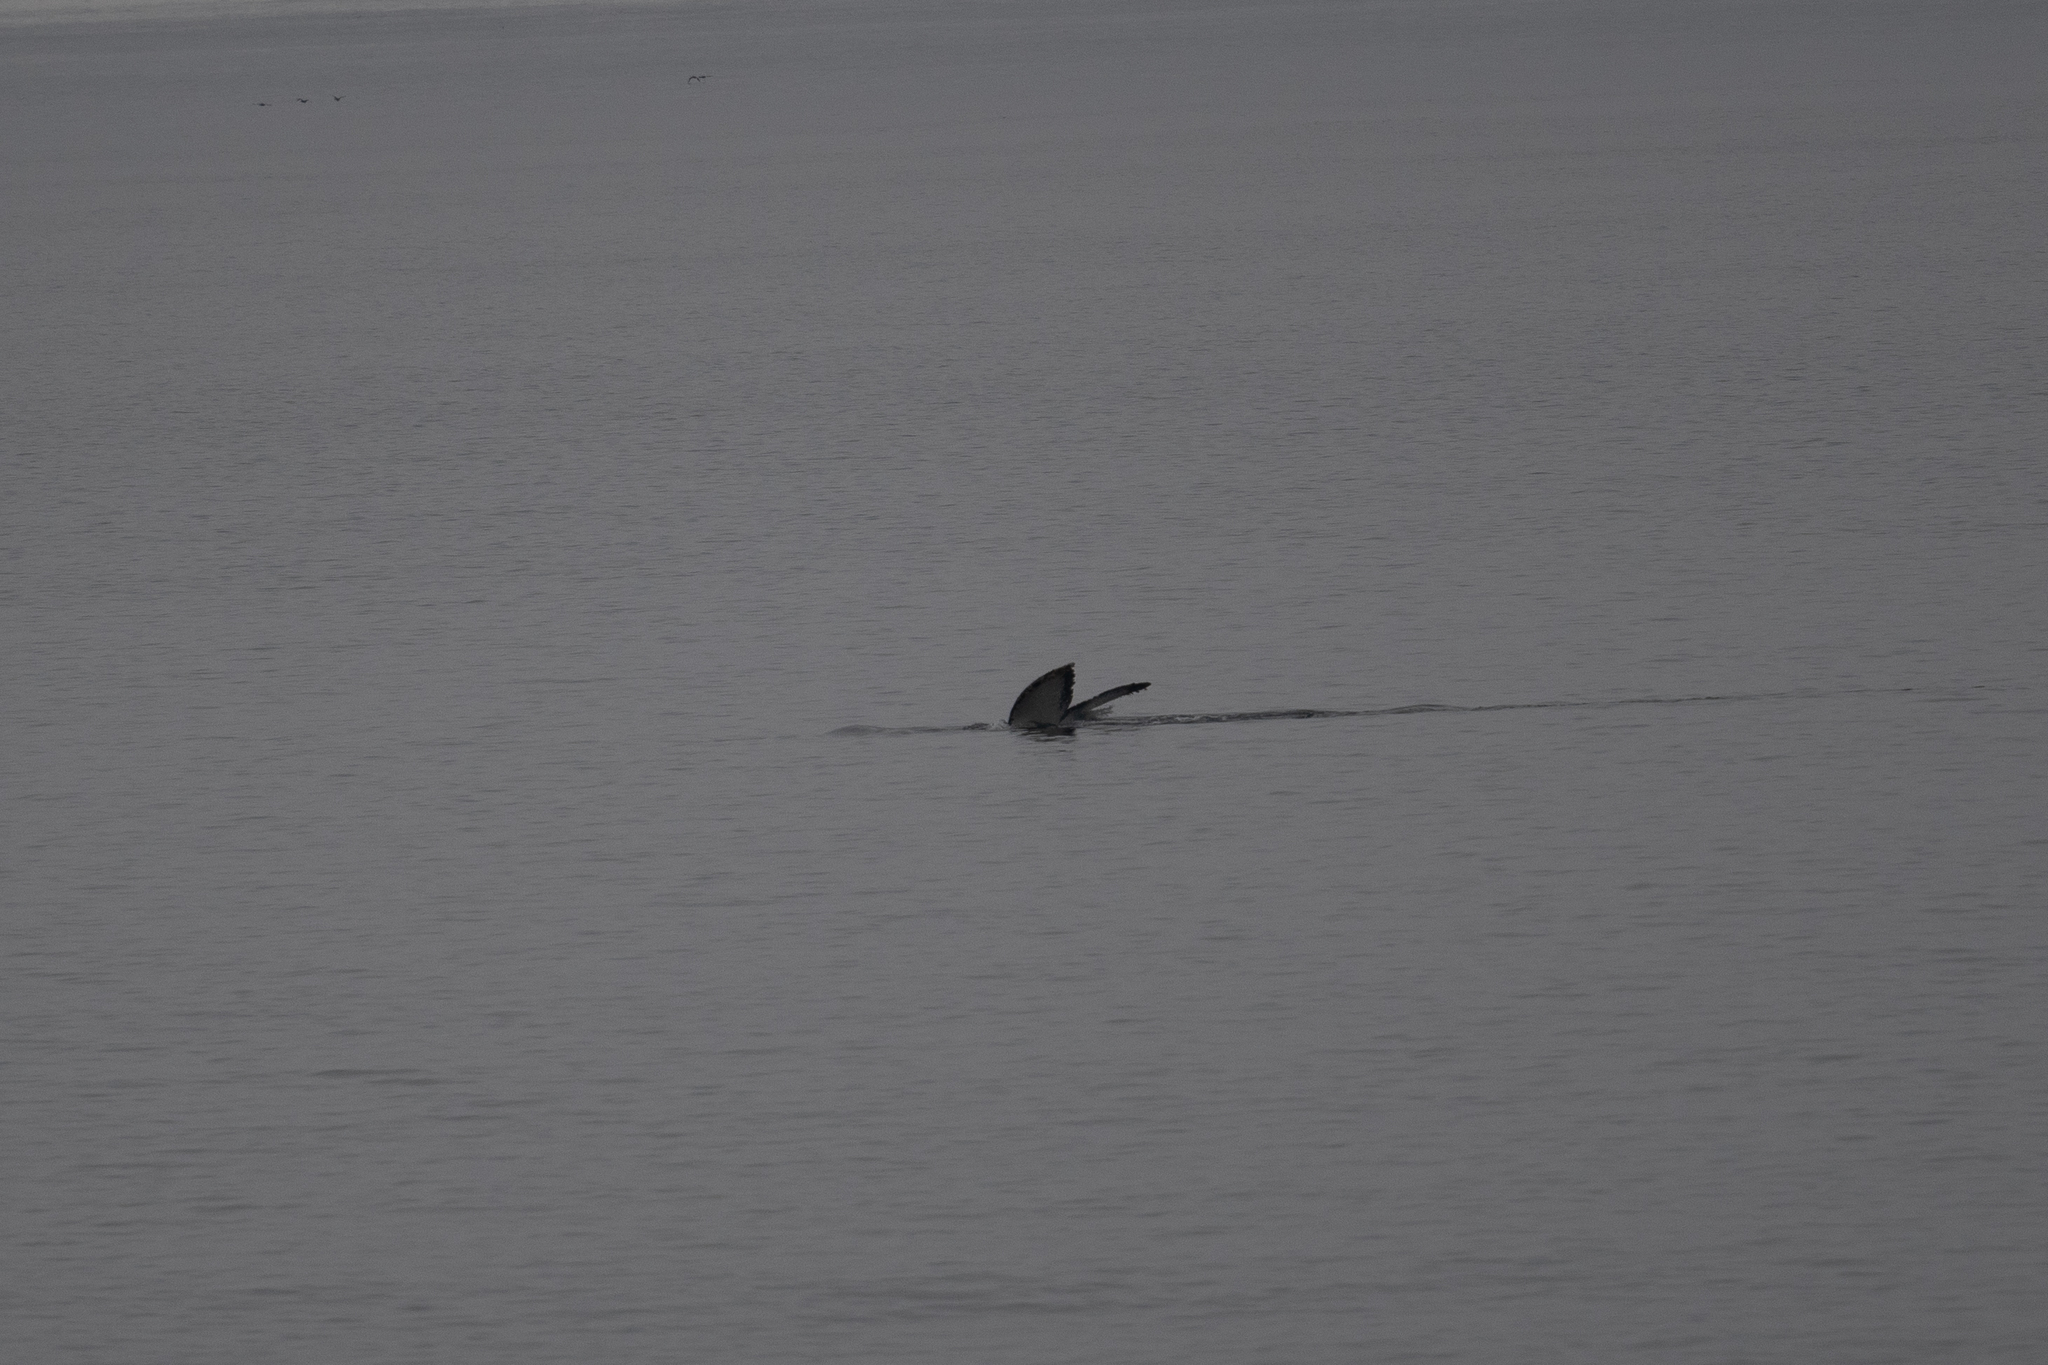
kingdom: Animalia
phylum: Chordata
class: Mammalia
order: Cetacea
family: Balaenopteridae
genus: Megaptera
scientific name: Megaptera novaeangliae
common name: Humpback whale
